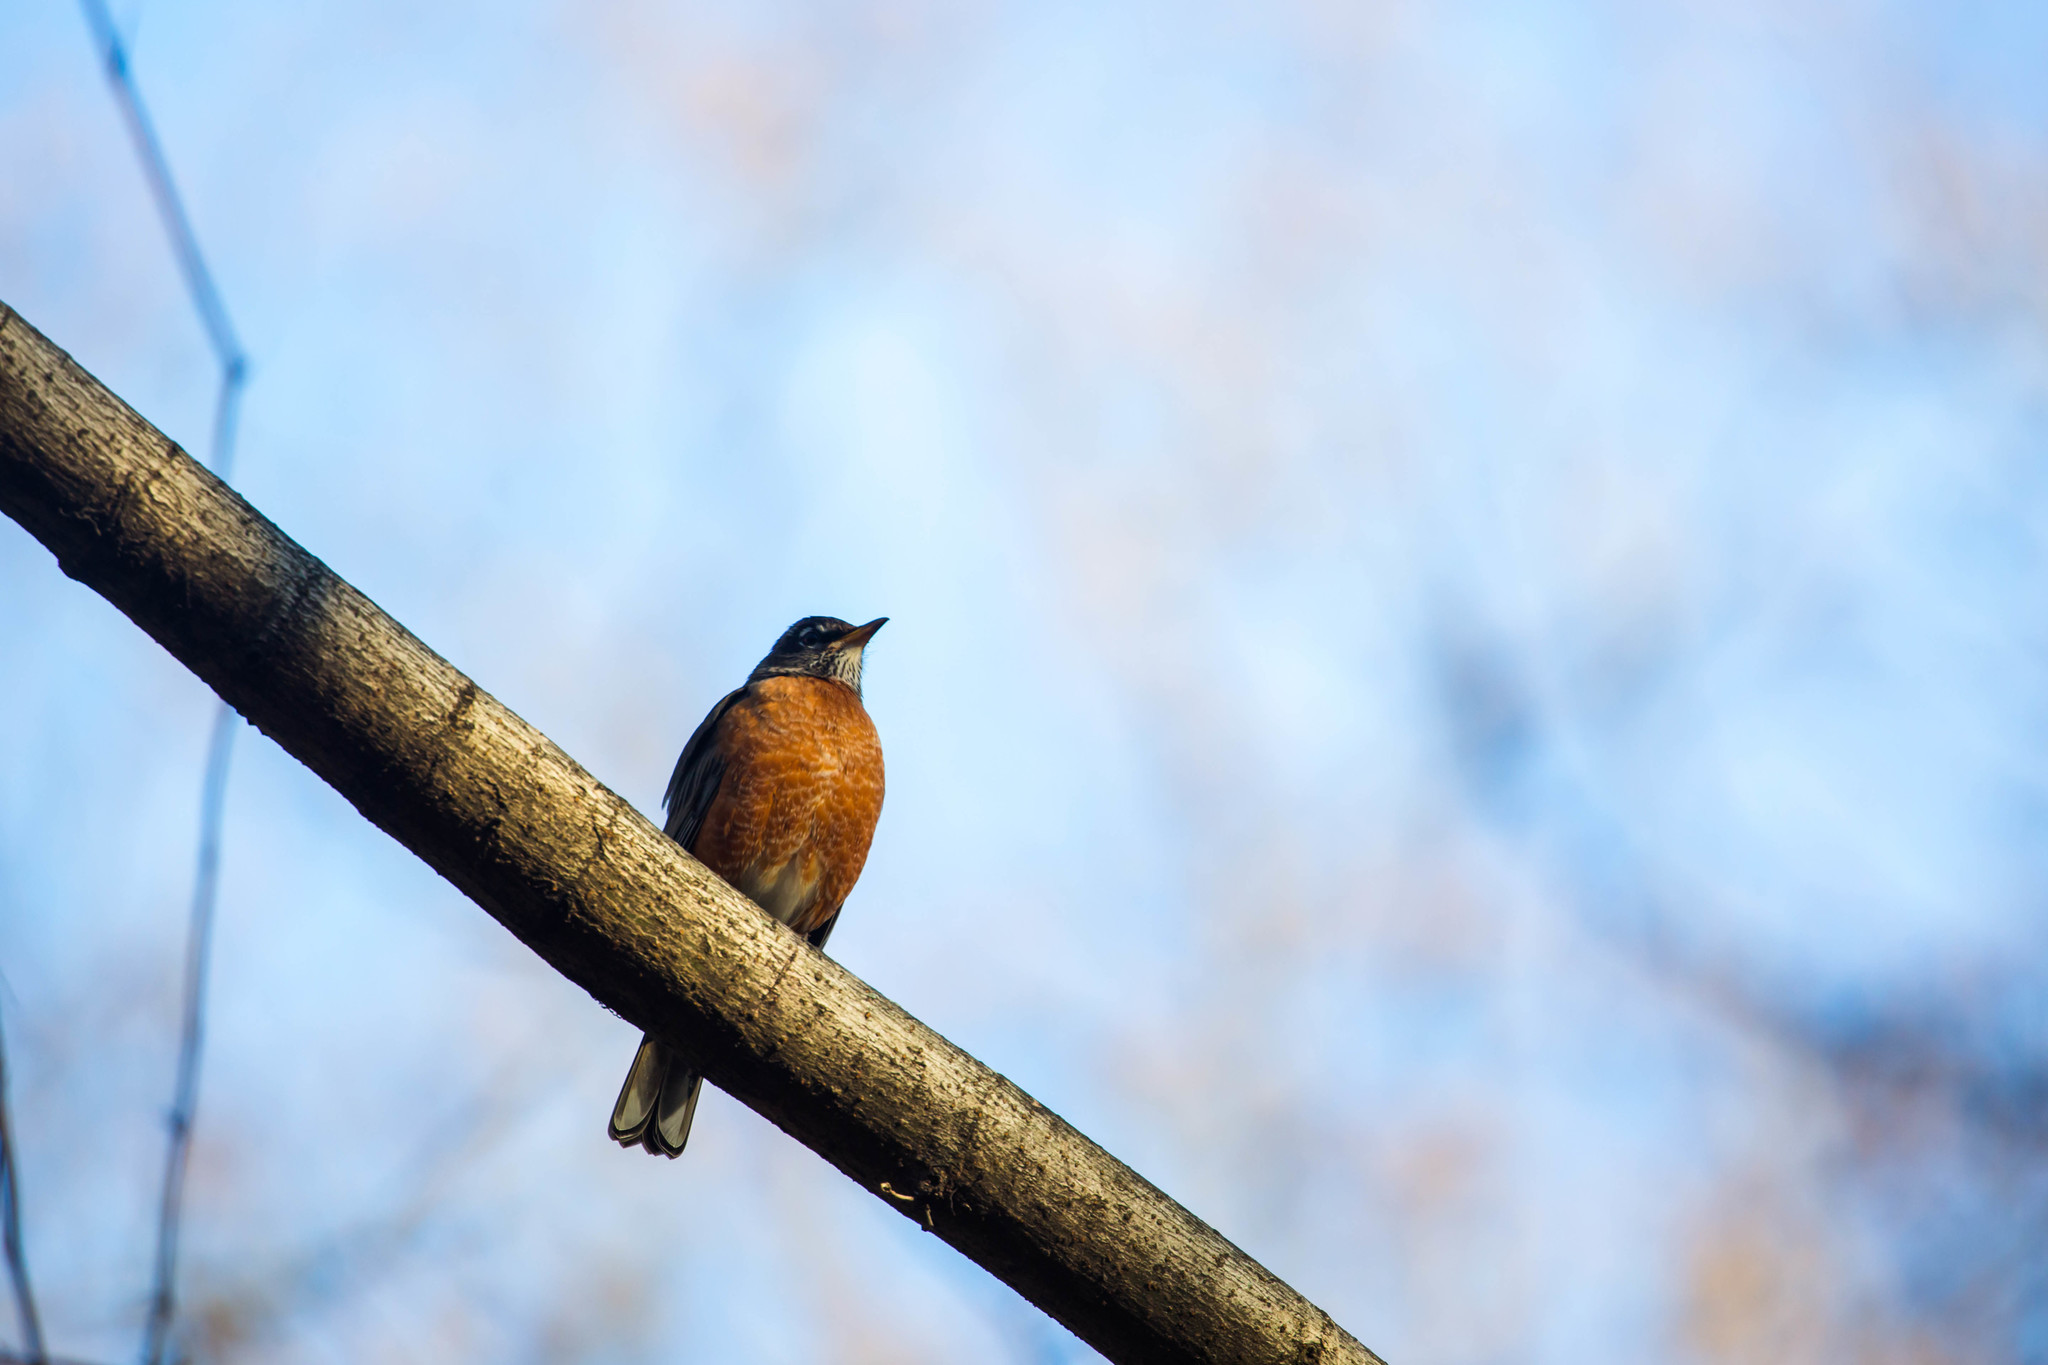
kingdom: Animalia
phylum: Chordata
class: Aves
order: Passeriformes
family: Turdidae
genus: Turdus
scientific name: Turdus migratorius
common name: American robin
